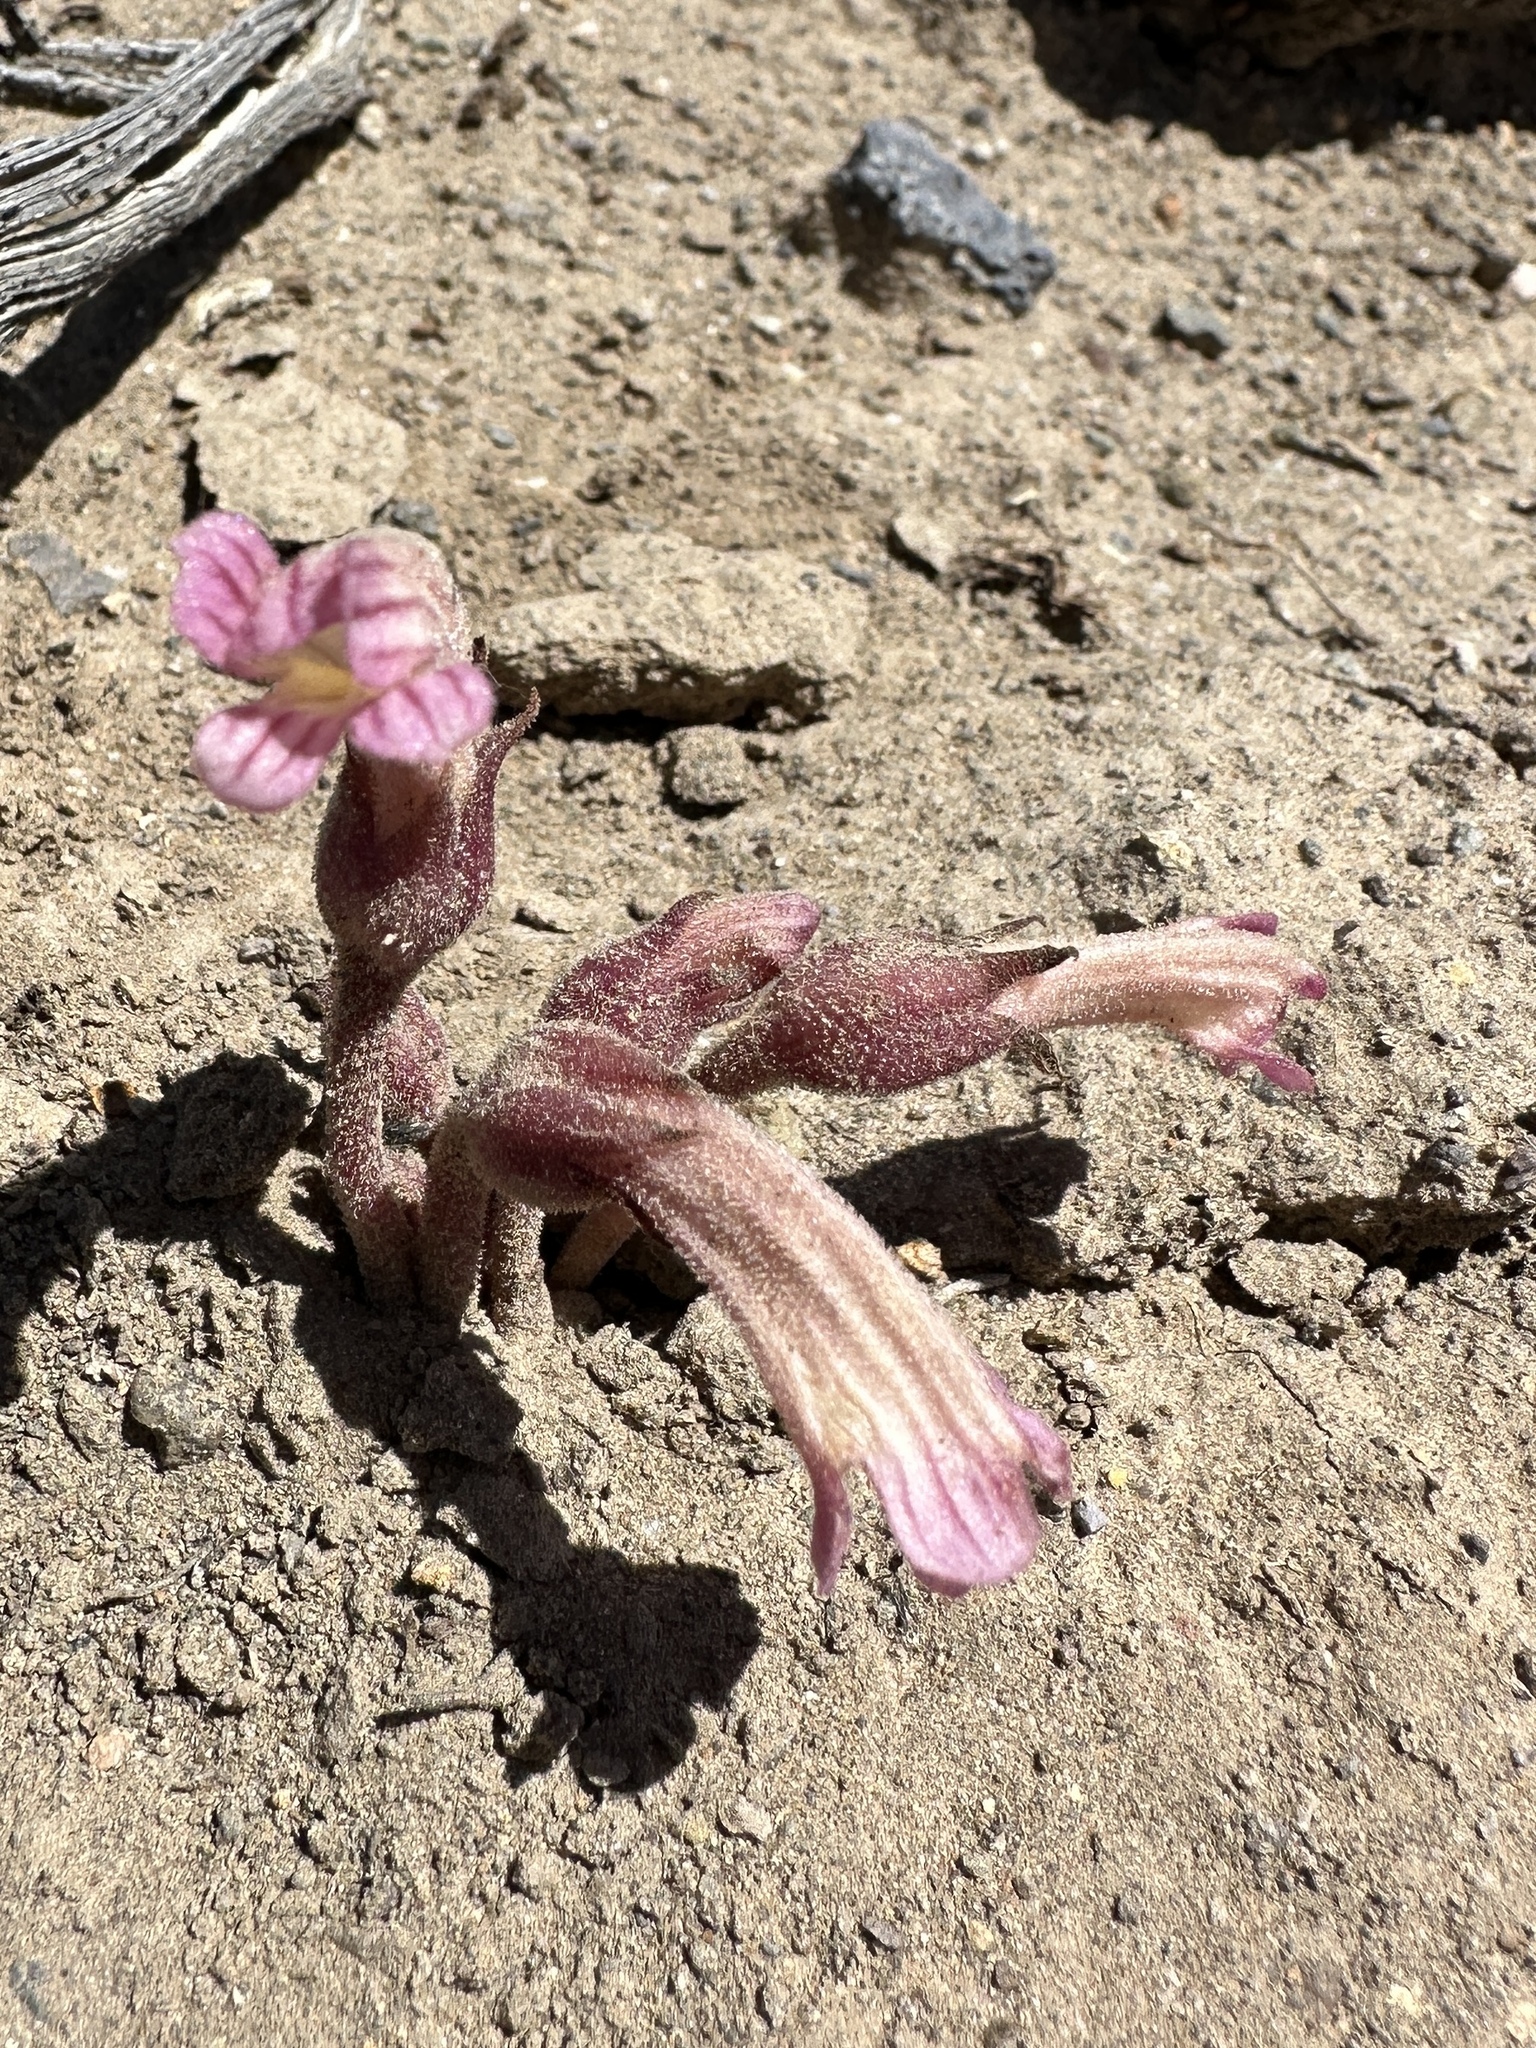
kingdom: Plantae
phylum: Tracheophyta
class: Magnoliopsida
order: Lamiales
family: Orobanchaceae
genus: Aphyllon
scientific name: Aphyllon fasciculatum
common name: Clustered broomrape
